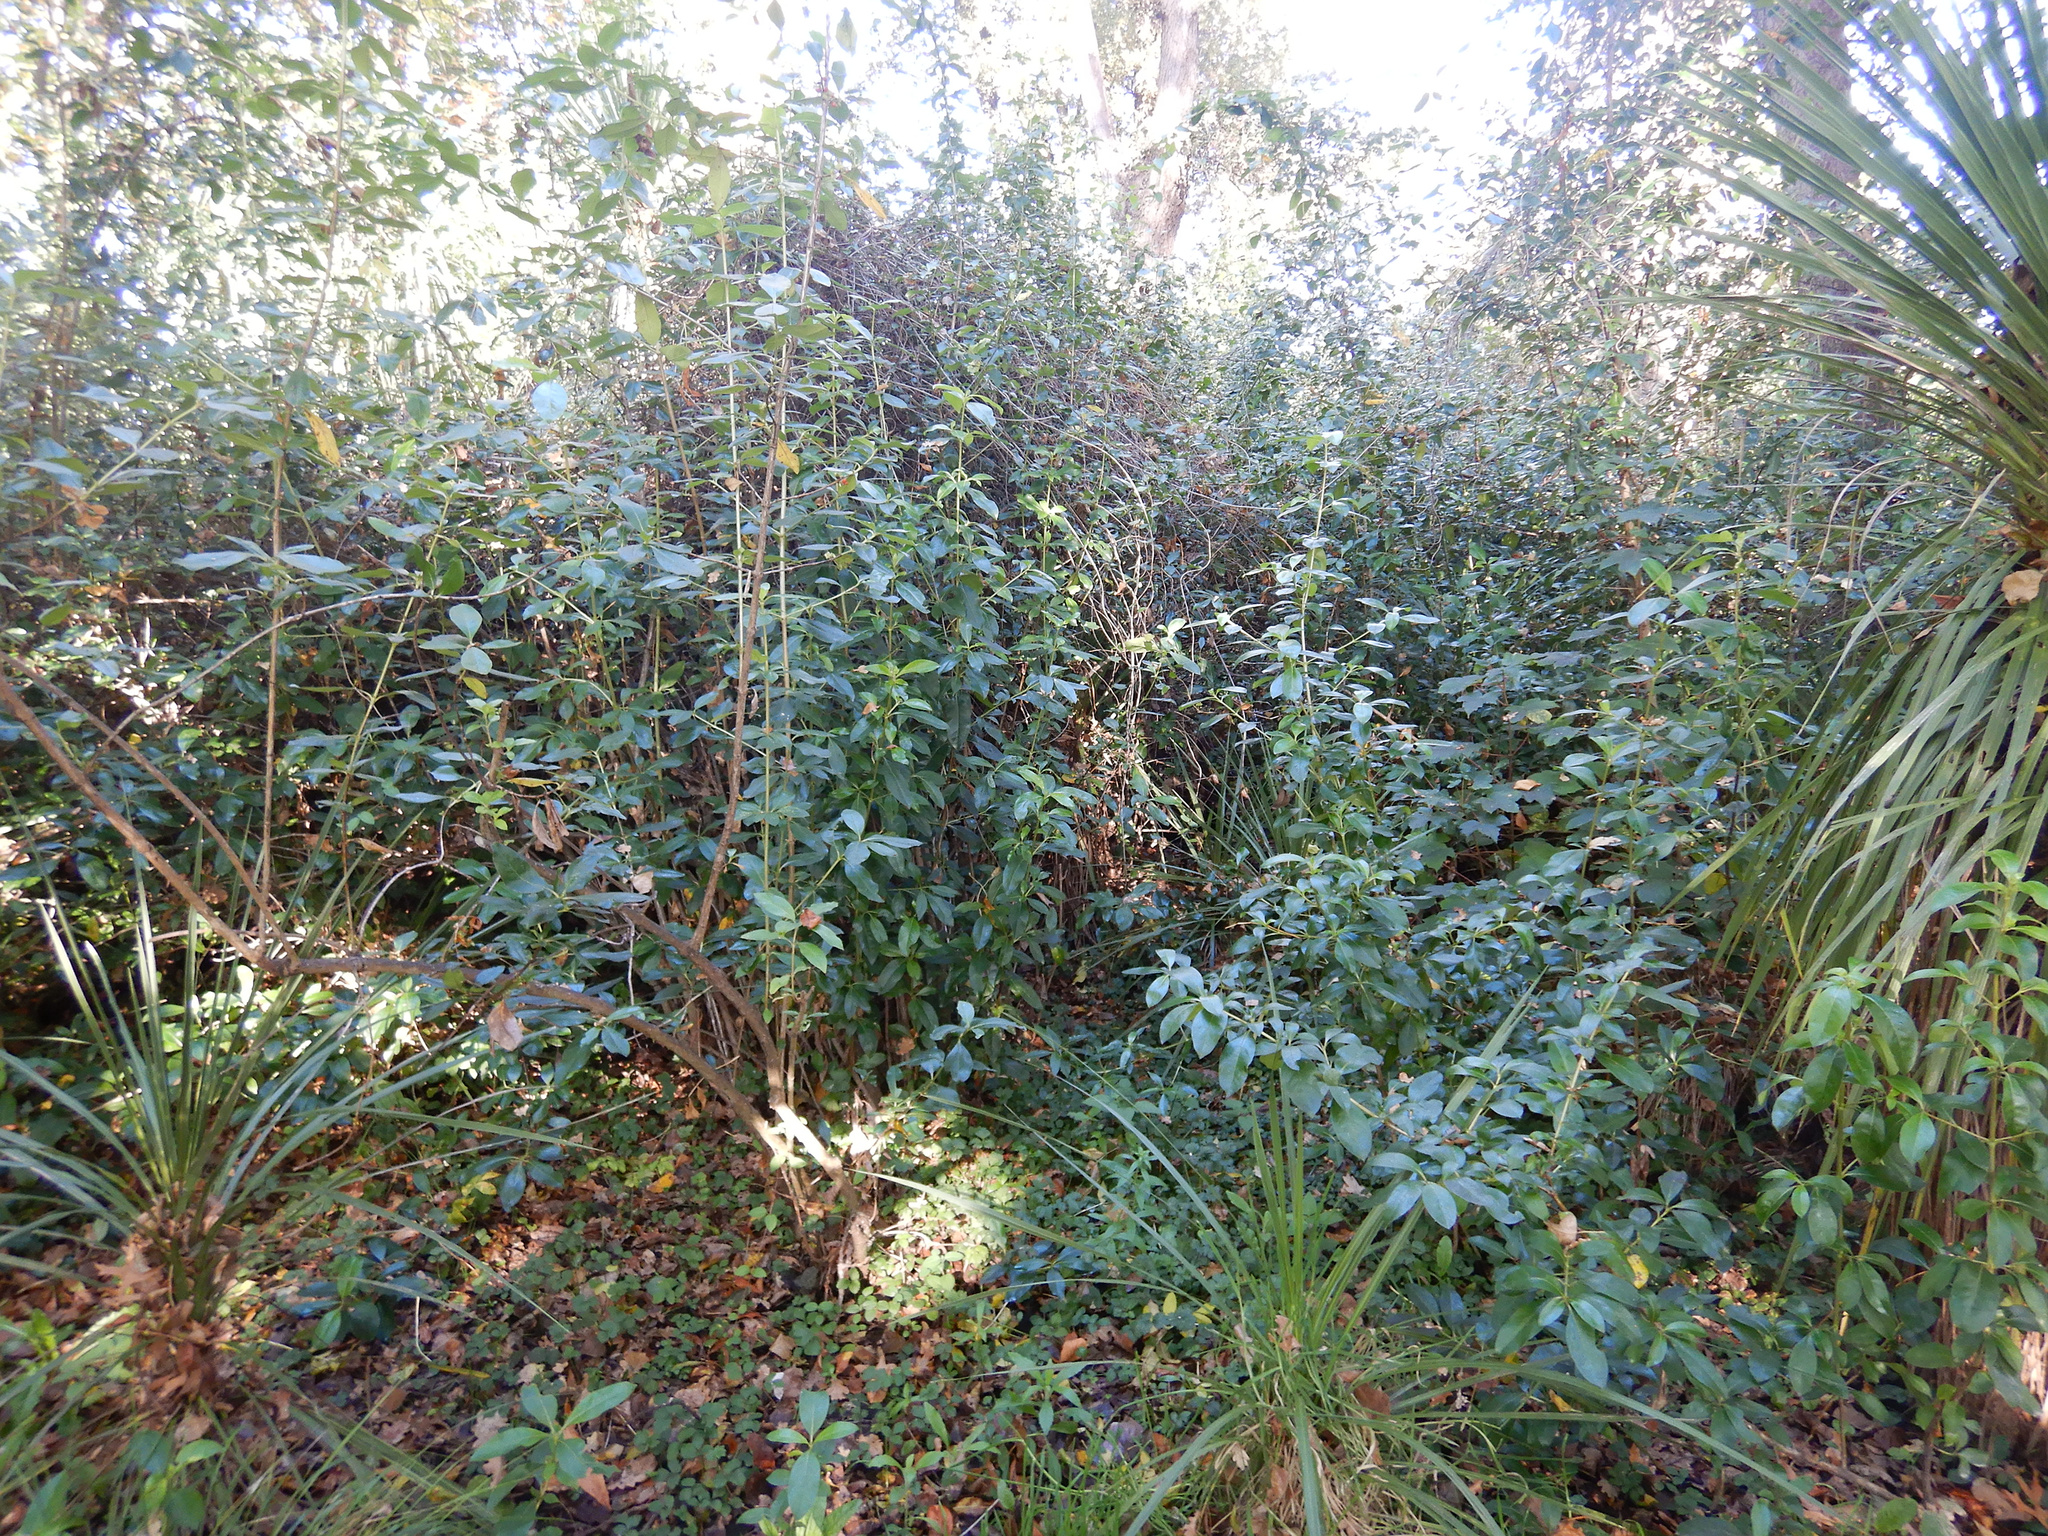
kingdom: Plantae
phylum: Tracheophyta
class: Magnoliopsida
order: Gentianales
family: Rubiaceae
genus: Coprosma
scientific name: Coprosma robusta
